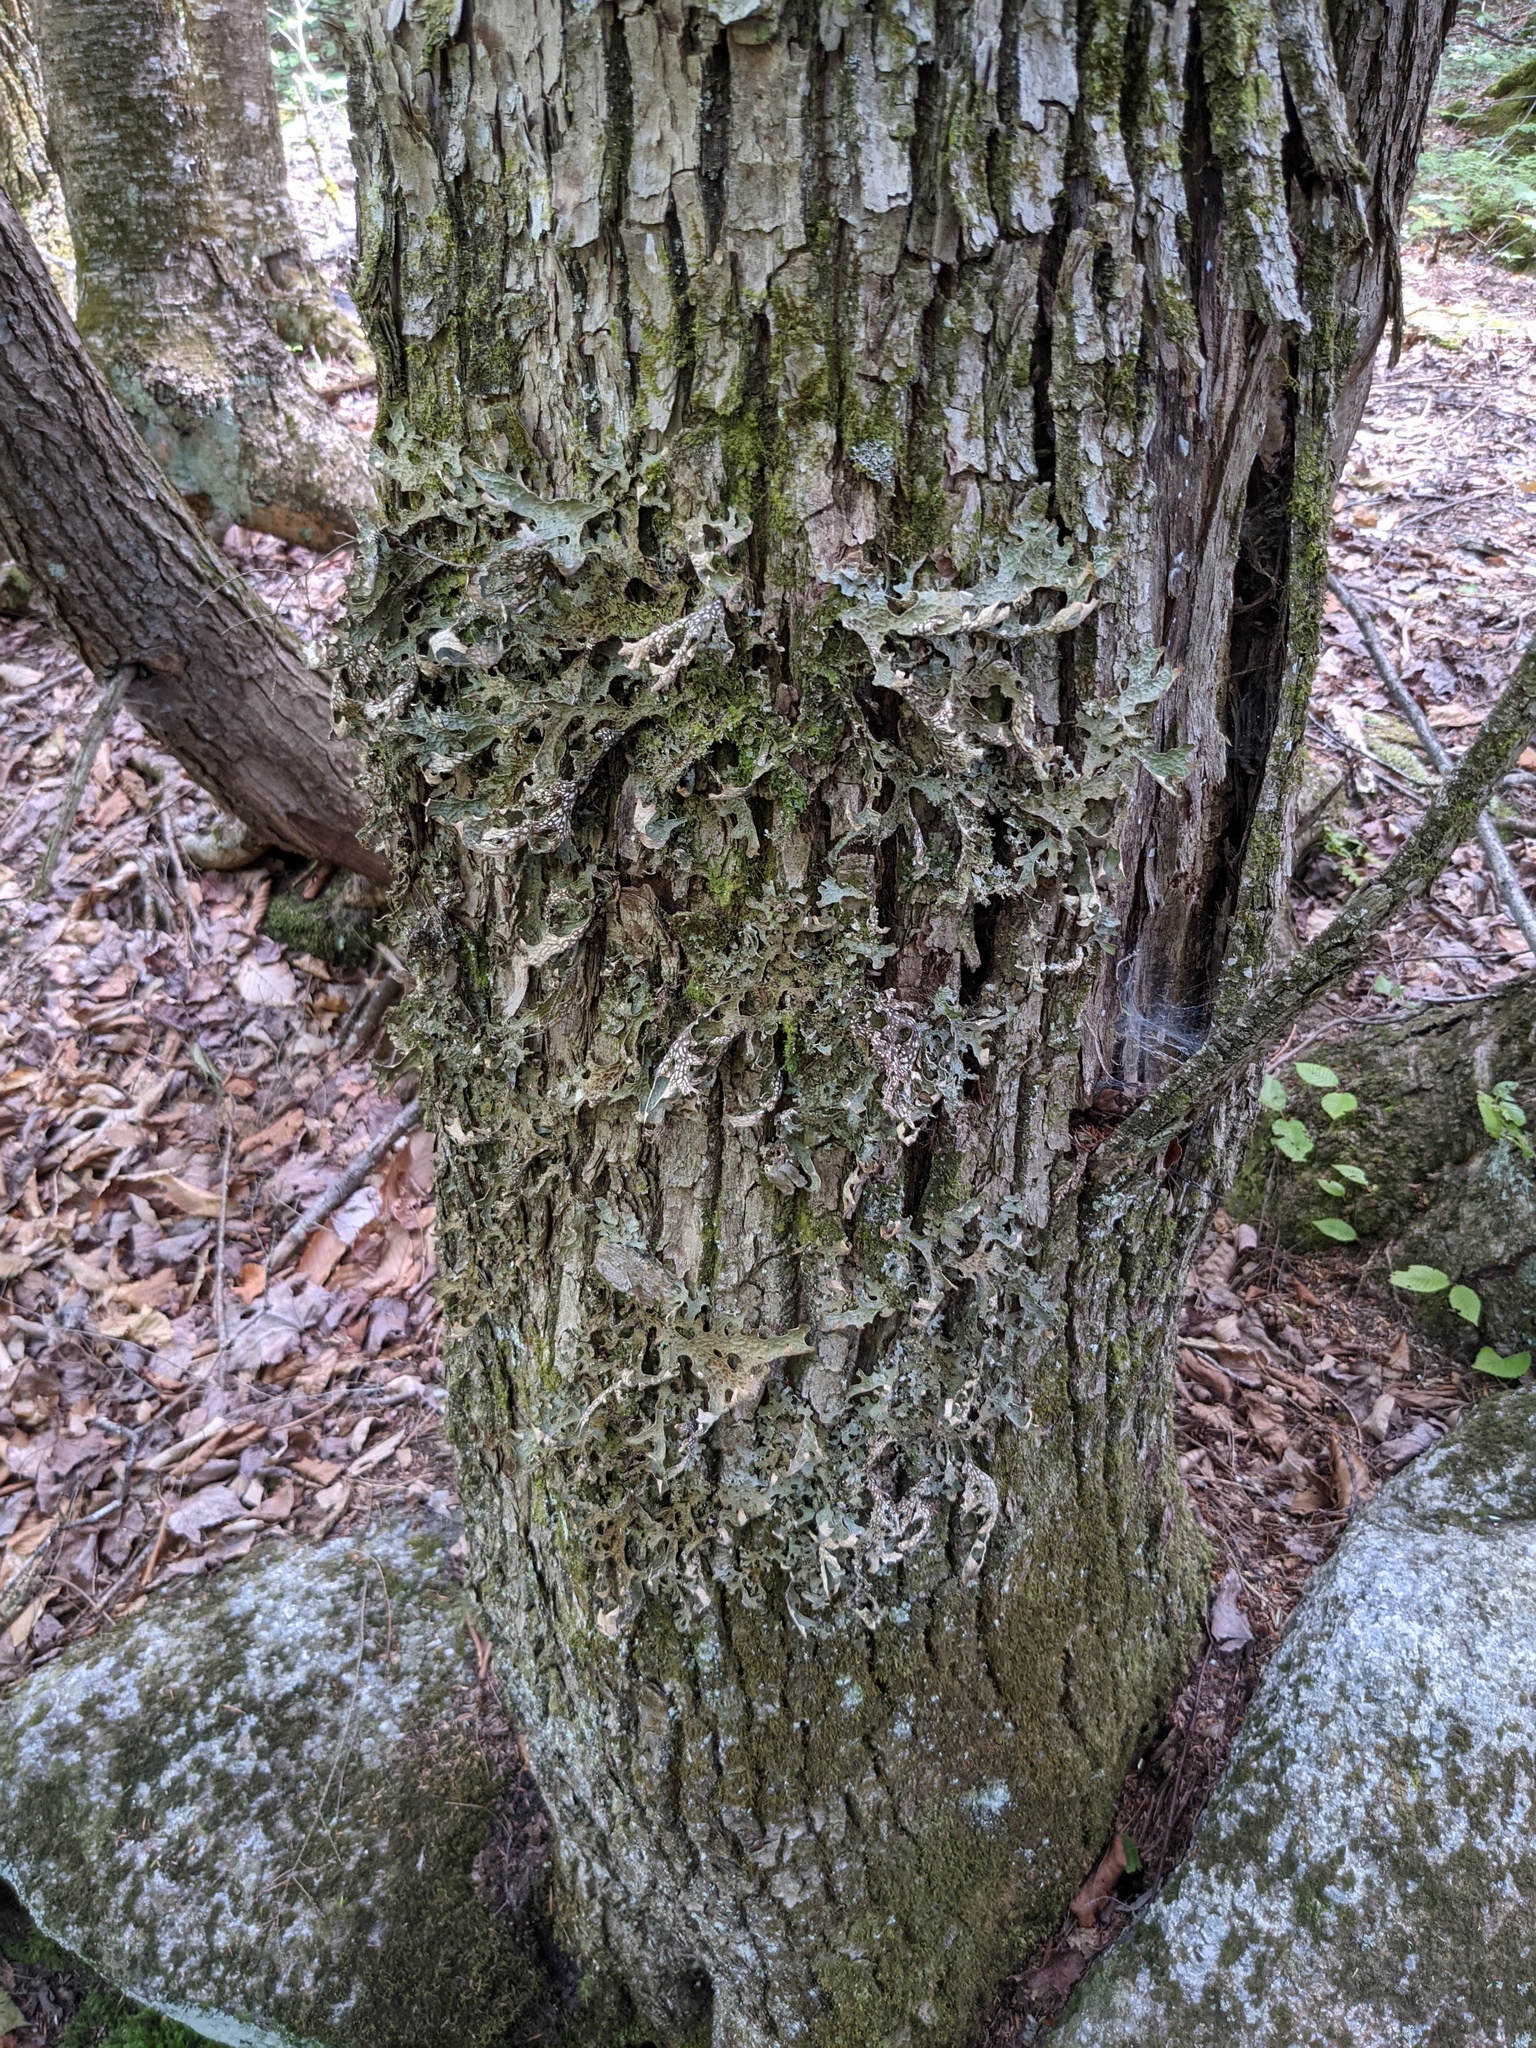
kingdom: Fungi
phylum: Ascomycota
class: Lecanoromycetes
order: Peltigerales
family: Lobariaceae
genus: Lobaria
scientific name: Lobaria pulmonaria
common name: Lungwort
